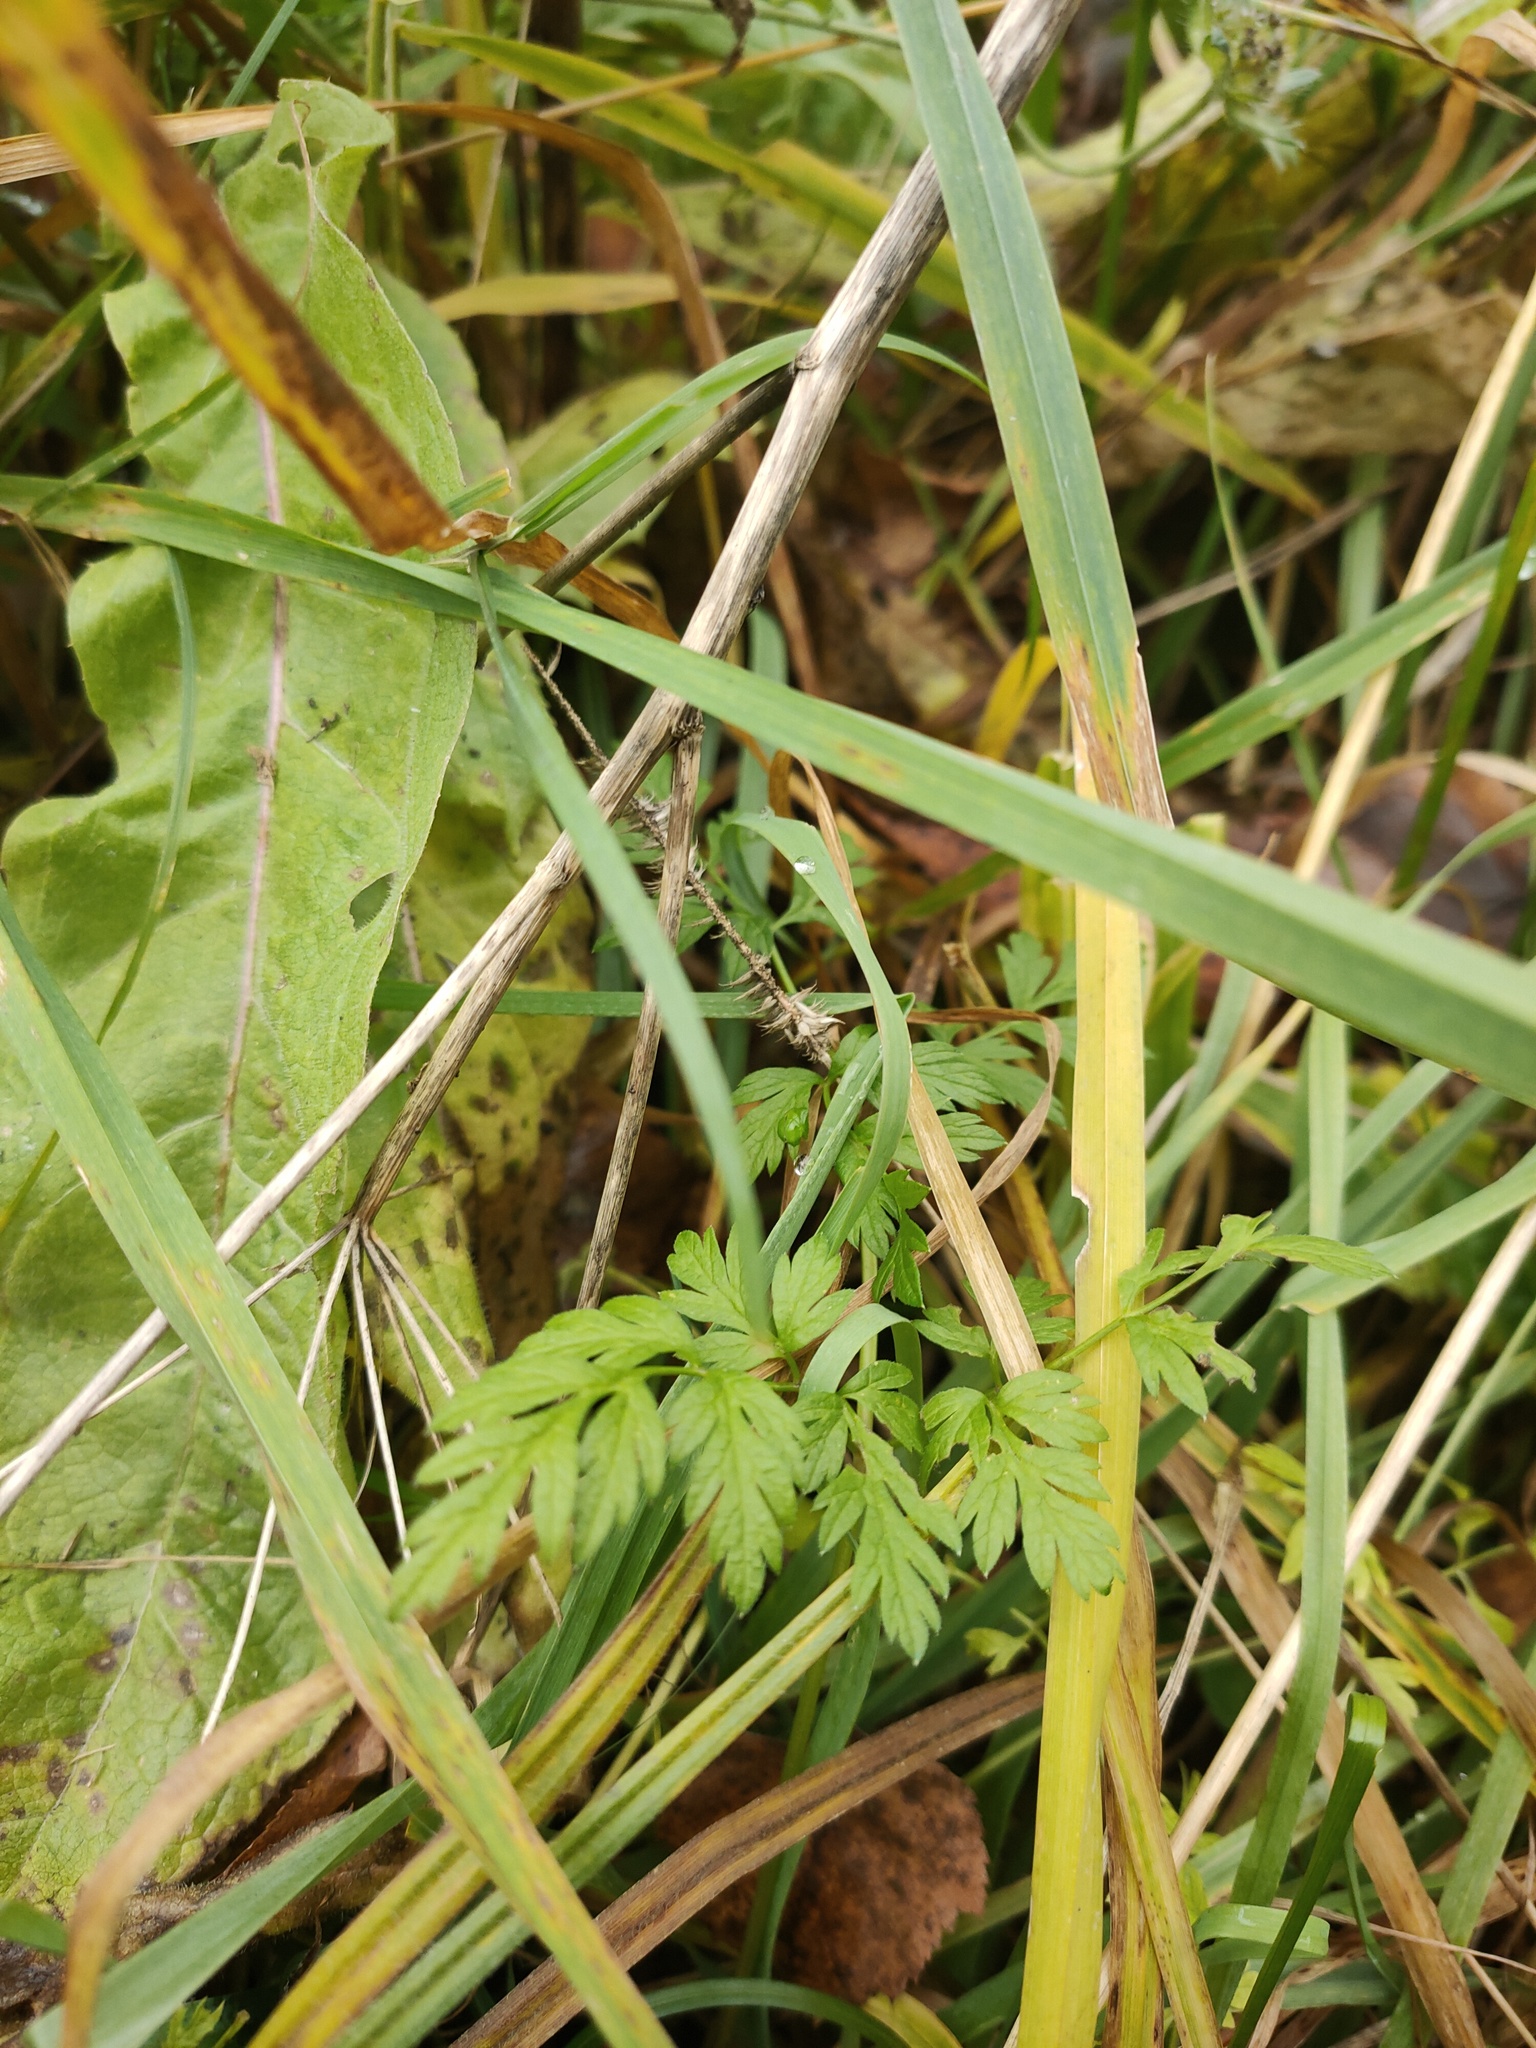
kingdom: Plantae
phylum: Tracheophyta
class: Magnoliopsida
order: Apiales
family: Apiaceae
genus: Anthriscus
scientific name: Anthriscus sylvestris
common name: Cow parsley
